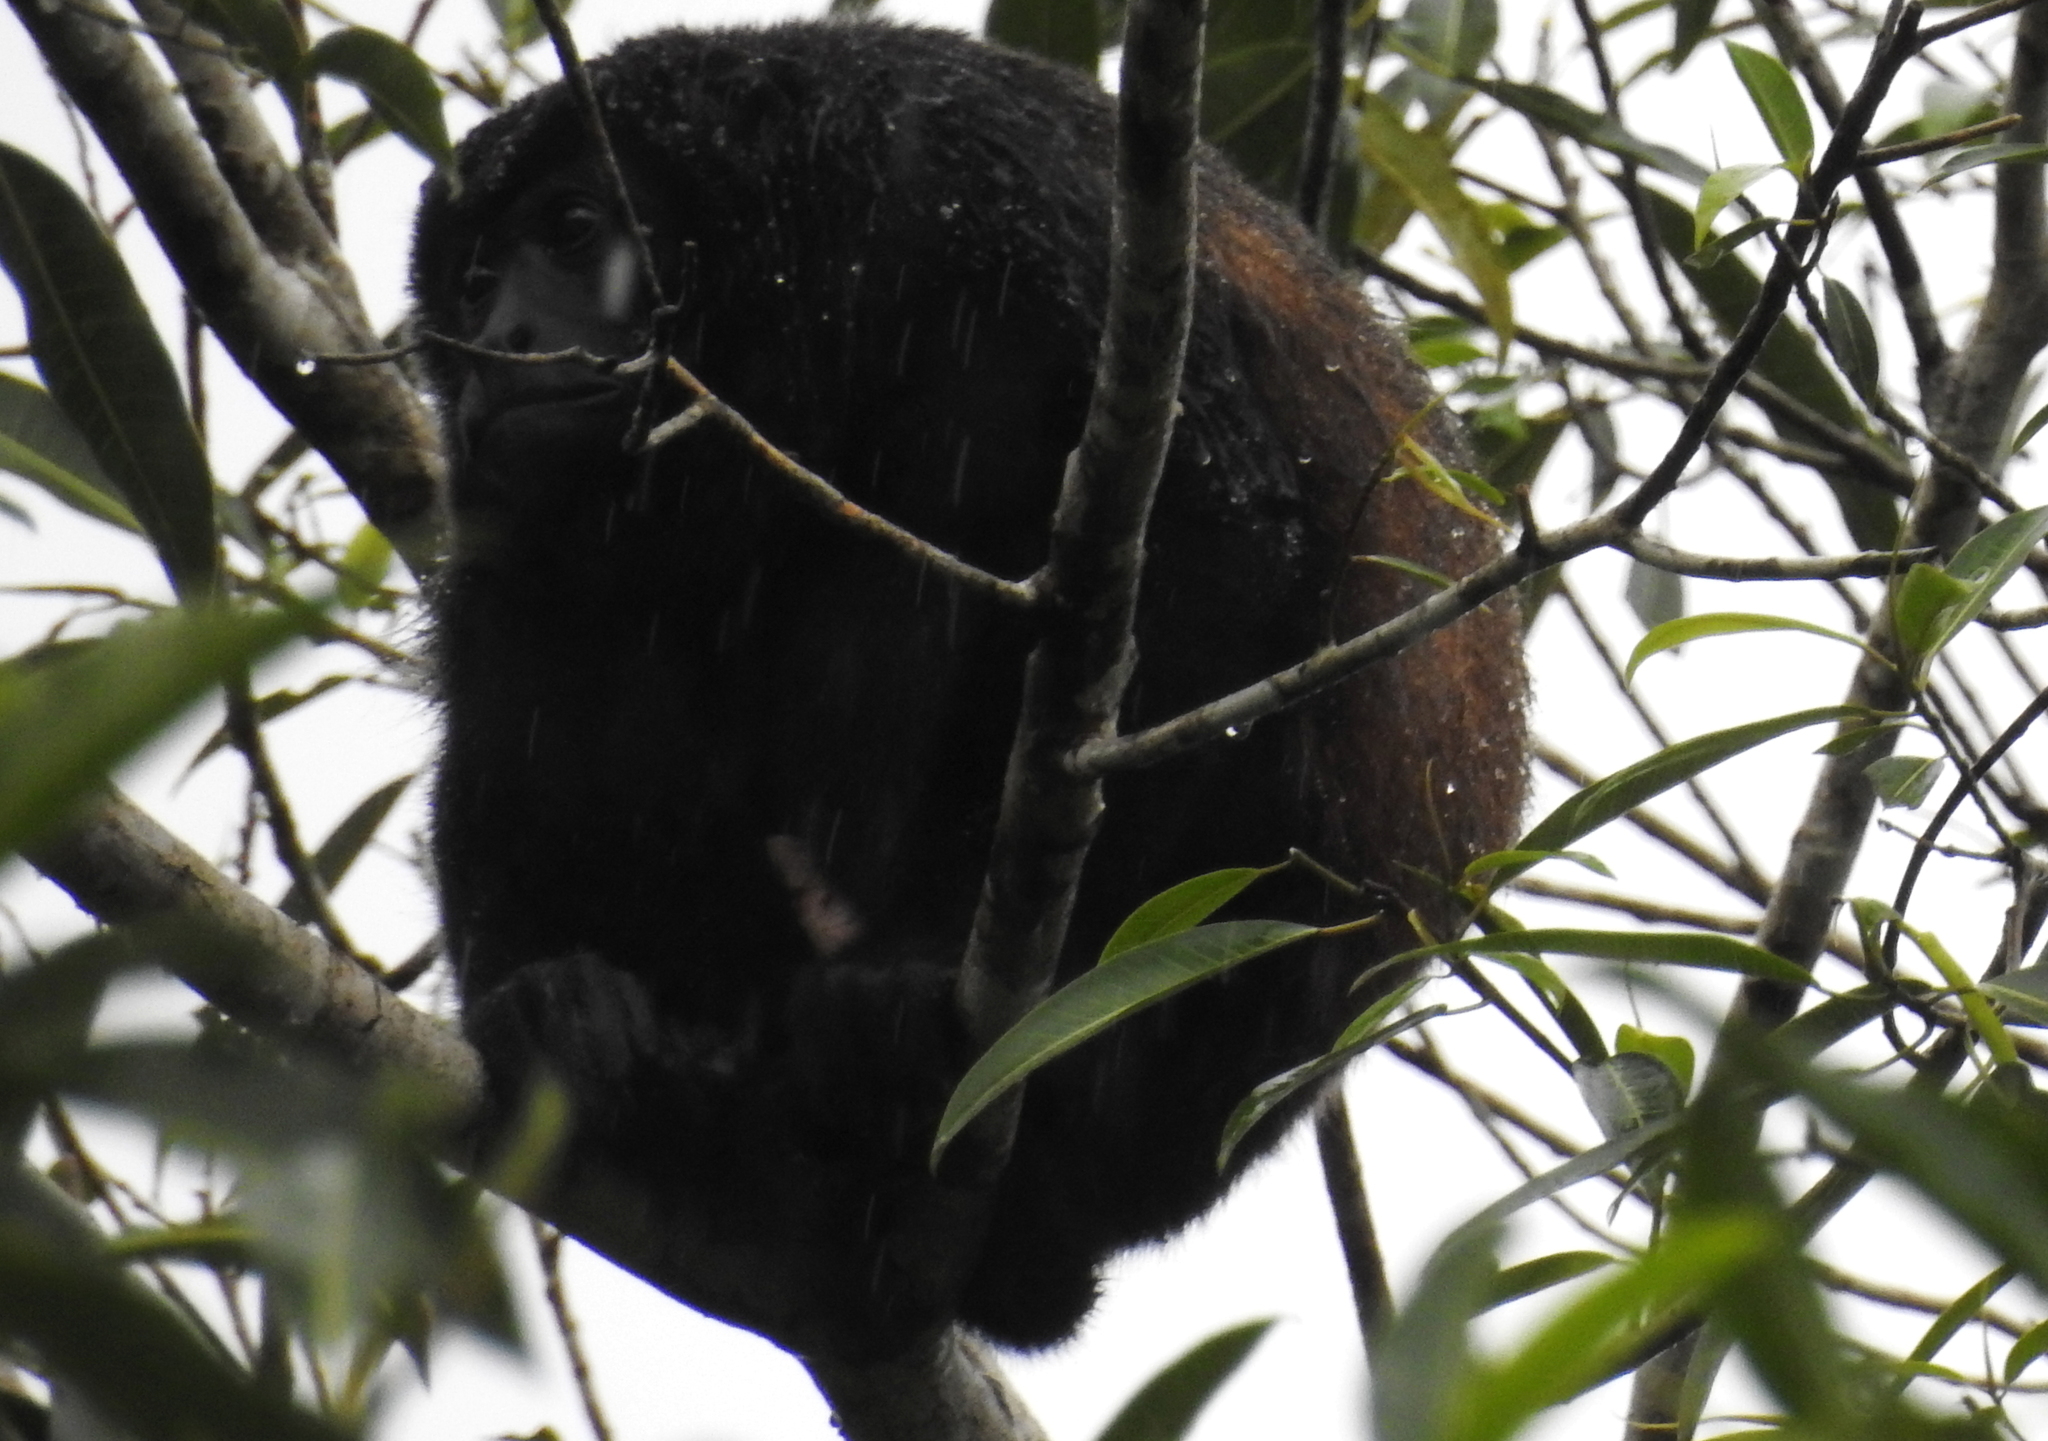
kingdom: Animalia
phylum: Chordata
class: Mammalia
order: Primates
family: Atelidae
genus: Alouatta
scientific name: Alouatta palliata
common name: Mantled howler
